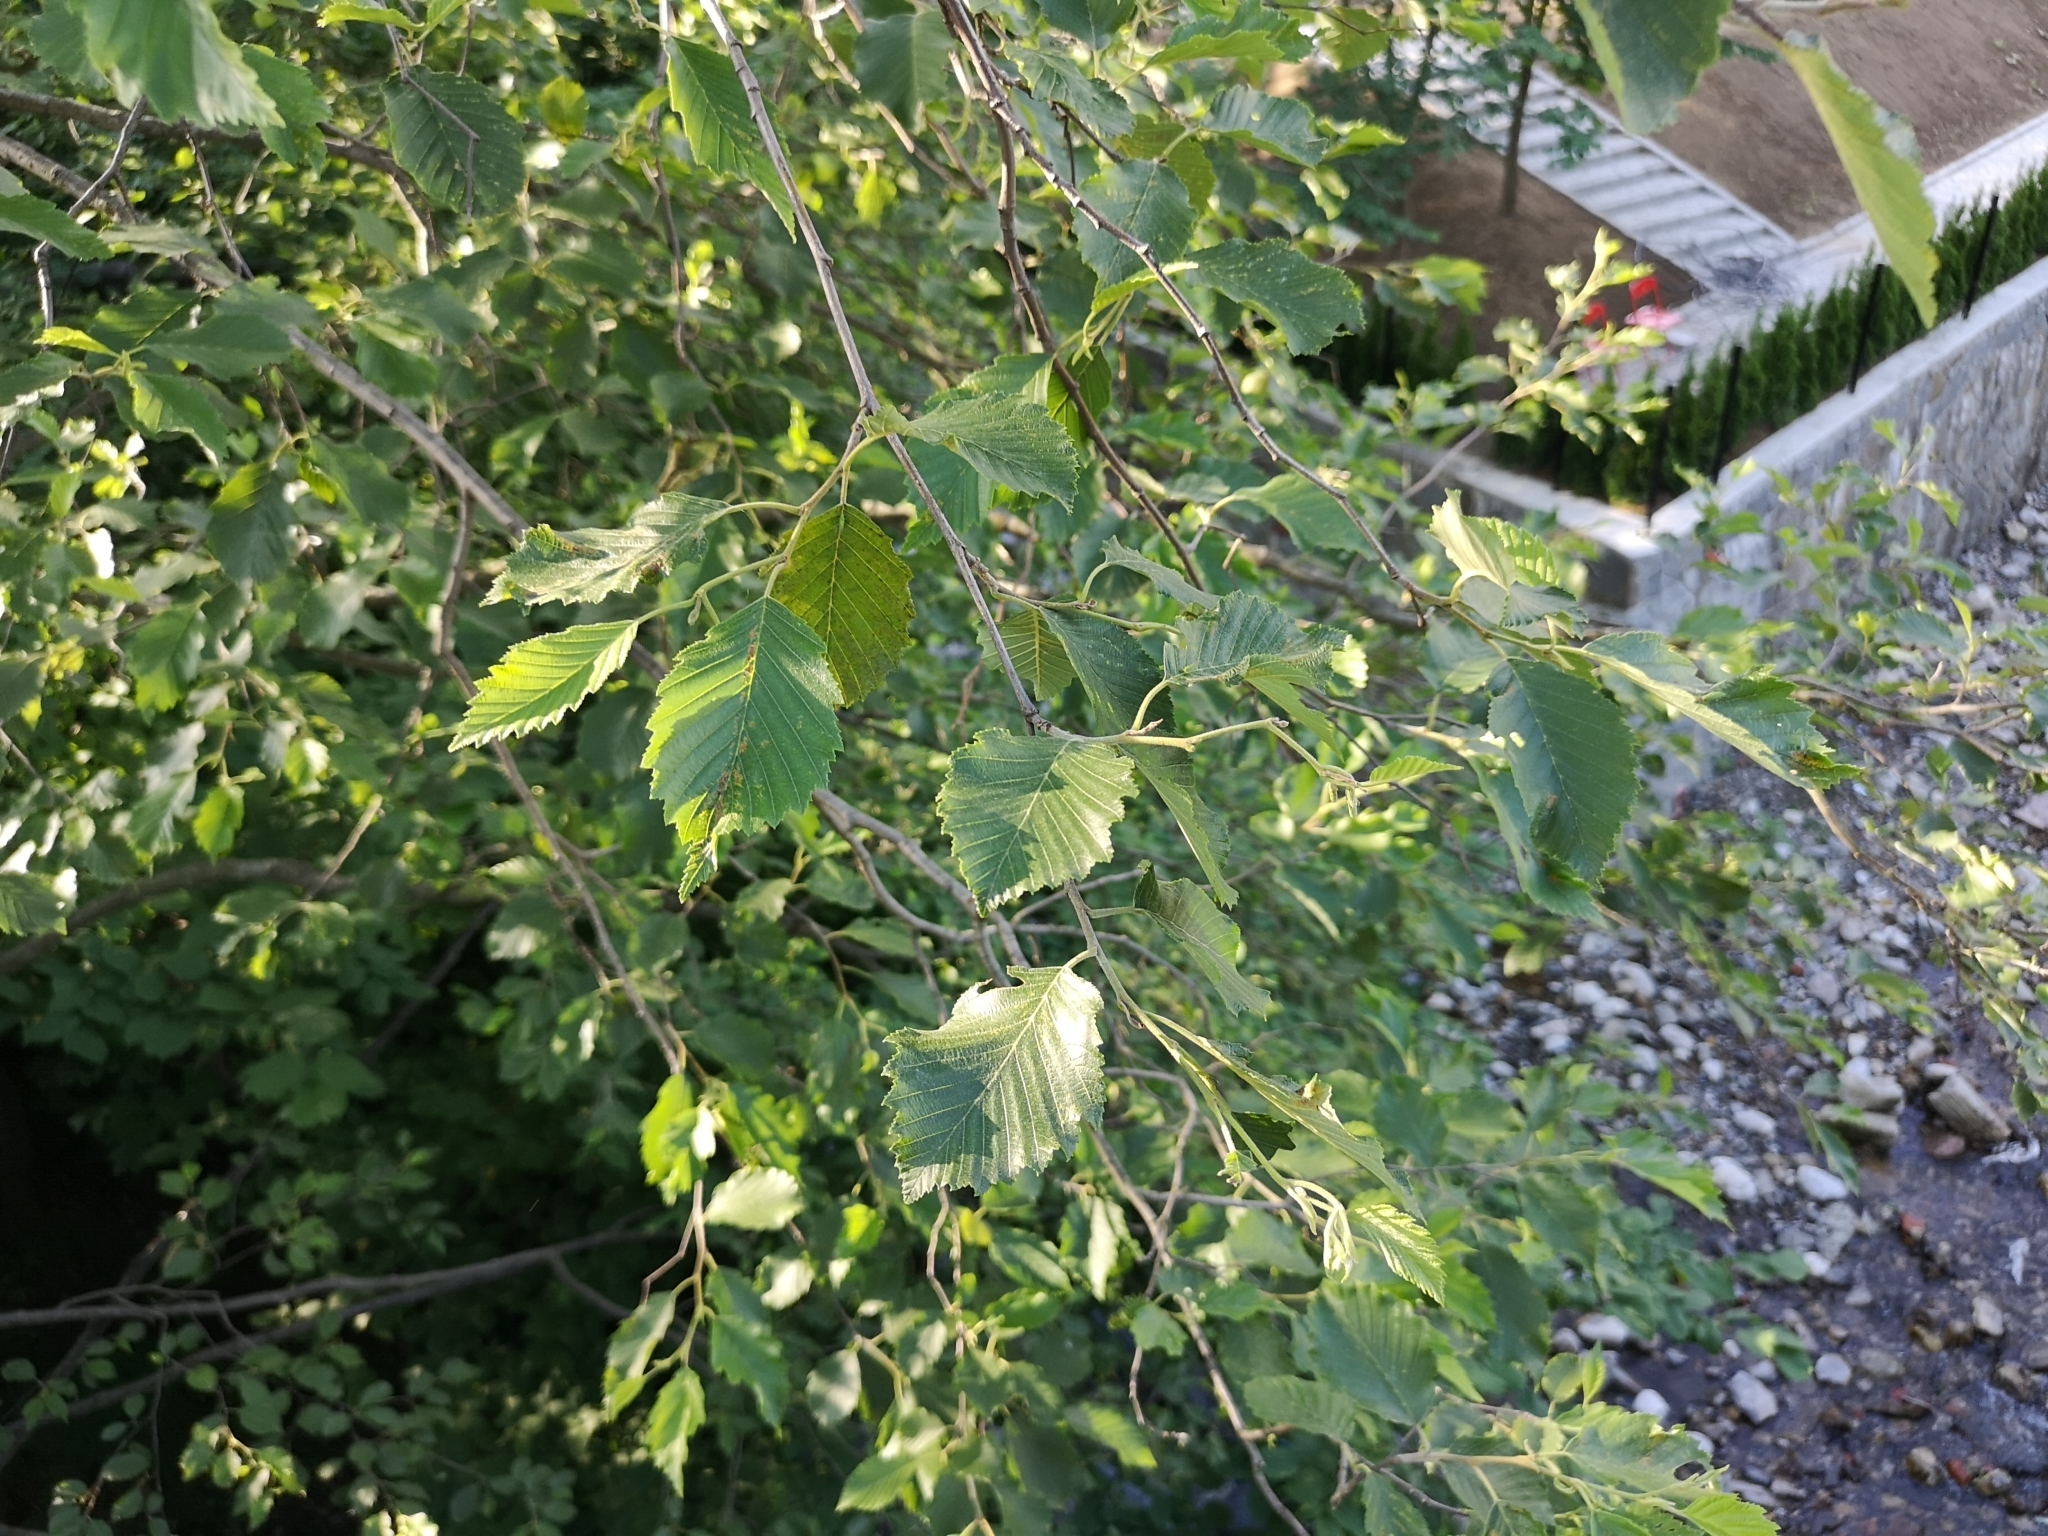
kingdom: Plantae
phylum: Tracheophyta
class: Magnoliopsida
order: Fagales
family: Betulaceae
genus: Alnus
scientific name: Alnus incana
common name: Grey alder
